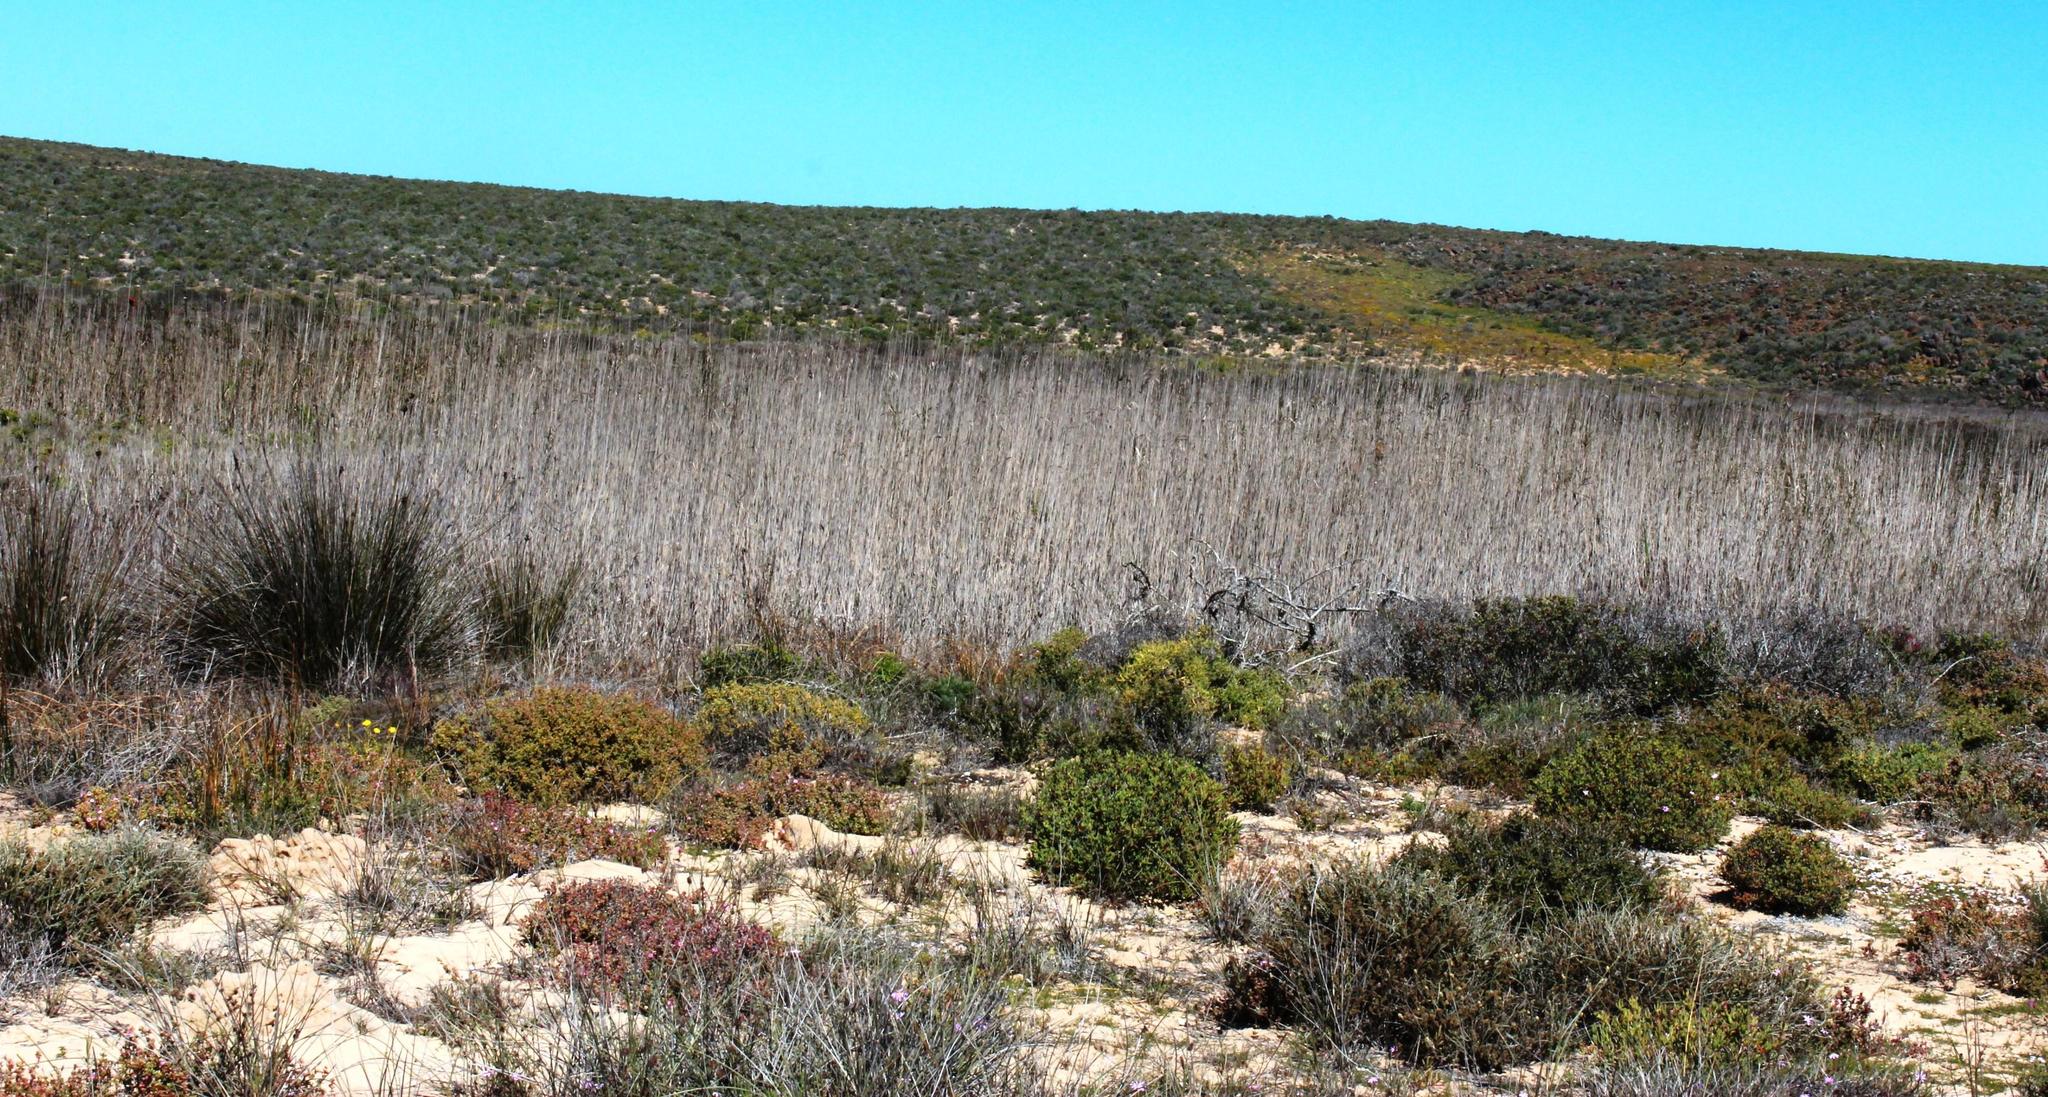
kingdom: Plantae
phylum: Tracheophyta
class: Liliopsida
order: Poales
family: Poaceae
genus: Phragmites
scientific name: Phragmites australis
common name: Common reed
